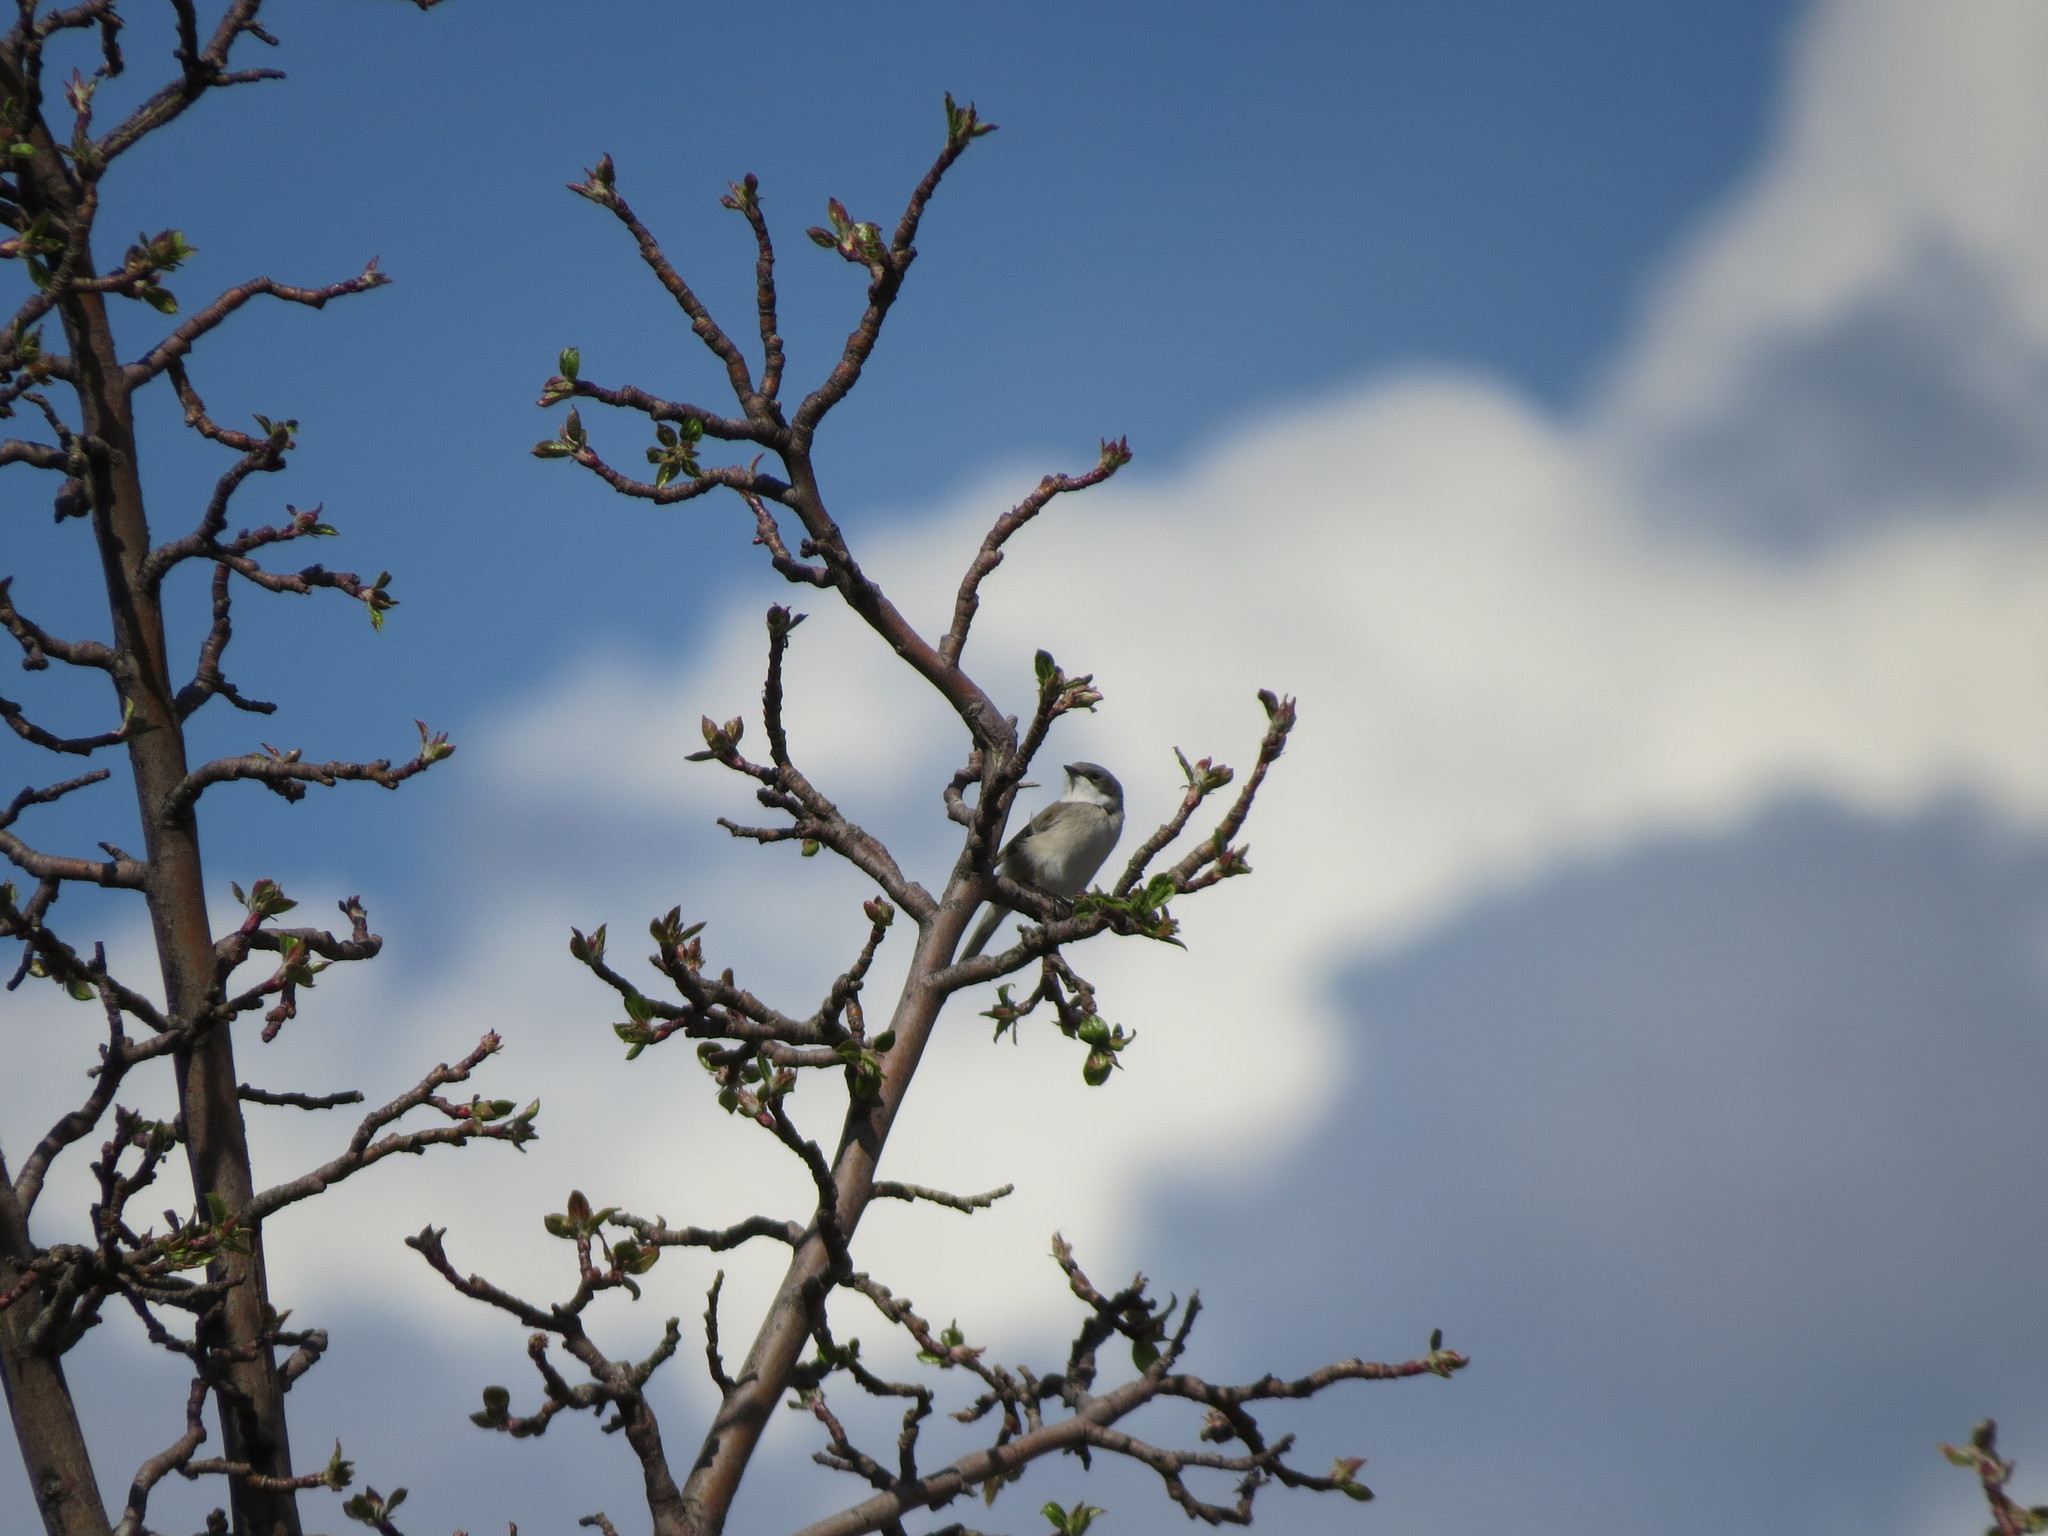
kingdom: Animalia
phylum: Chordata
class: Aves
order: Passeriformes
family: Sylviidae
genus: Sylvia
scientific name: Sylvia curruca
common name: Lesser whitethroat
